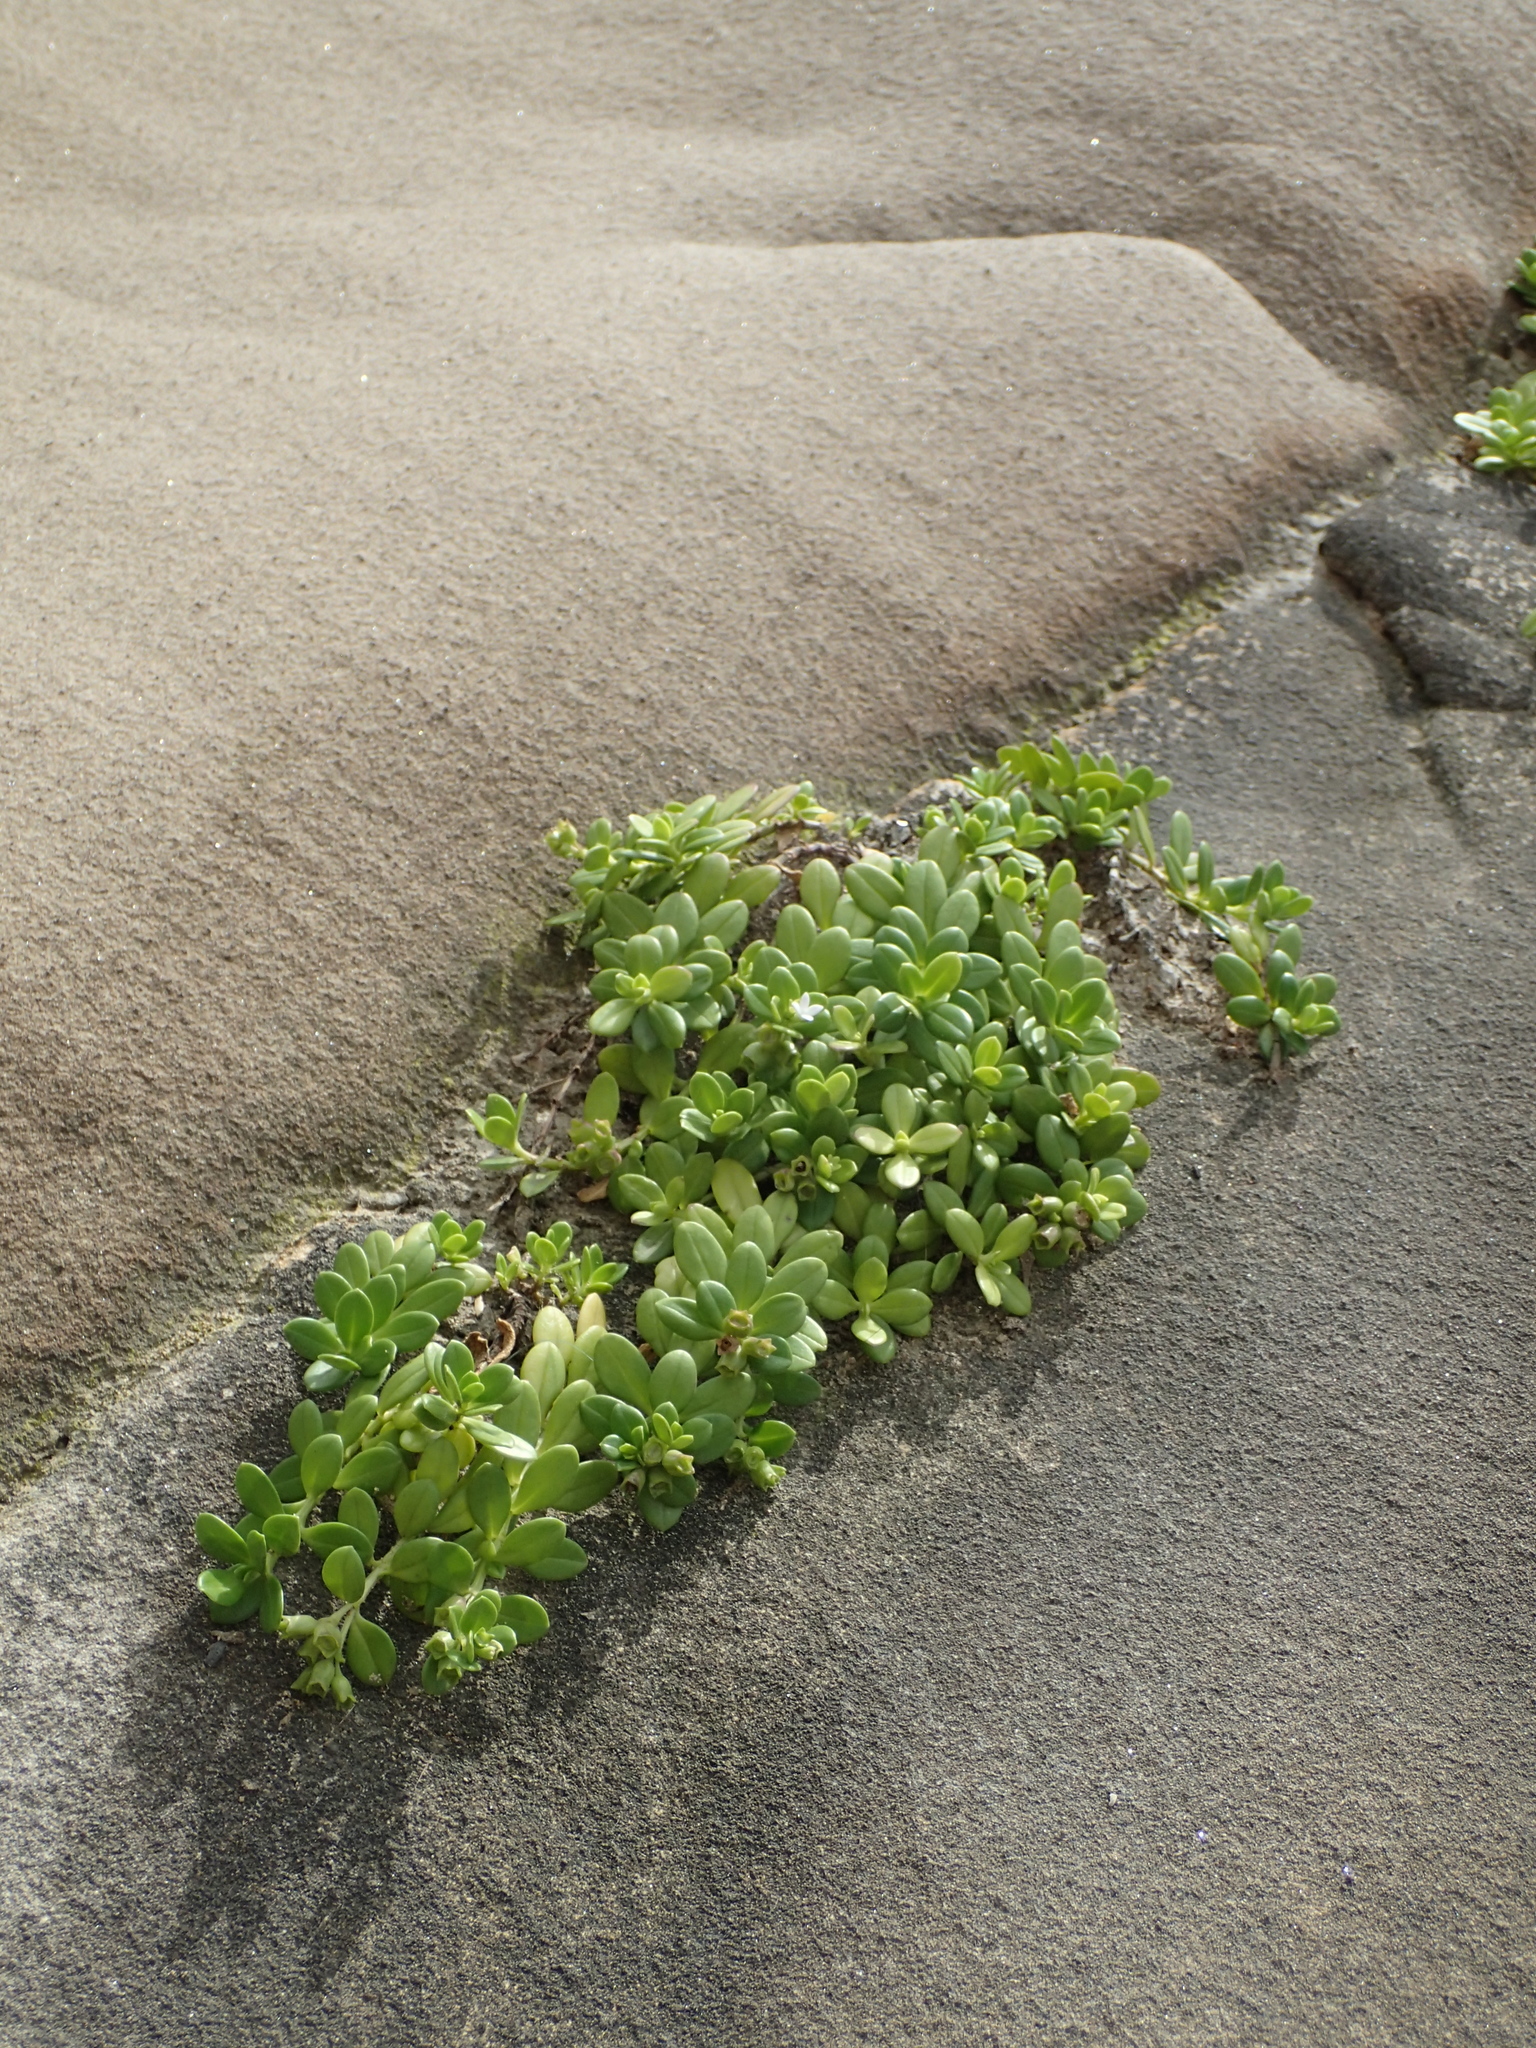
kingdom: Plantae
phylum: Tracheophyta
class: Magnoliopsida
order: Gentianales
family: Rubiaceae
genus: Leptopetalum
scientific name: Leptopetalum strigulosum
